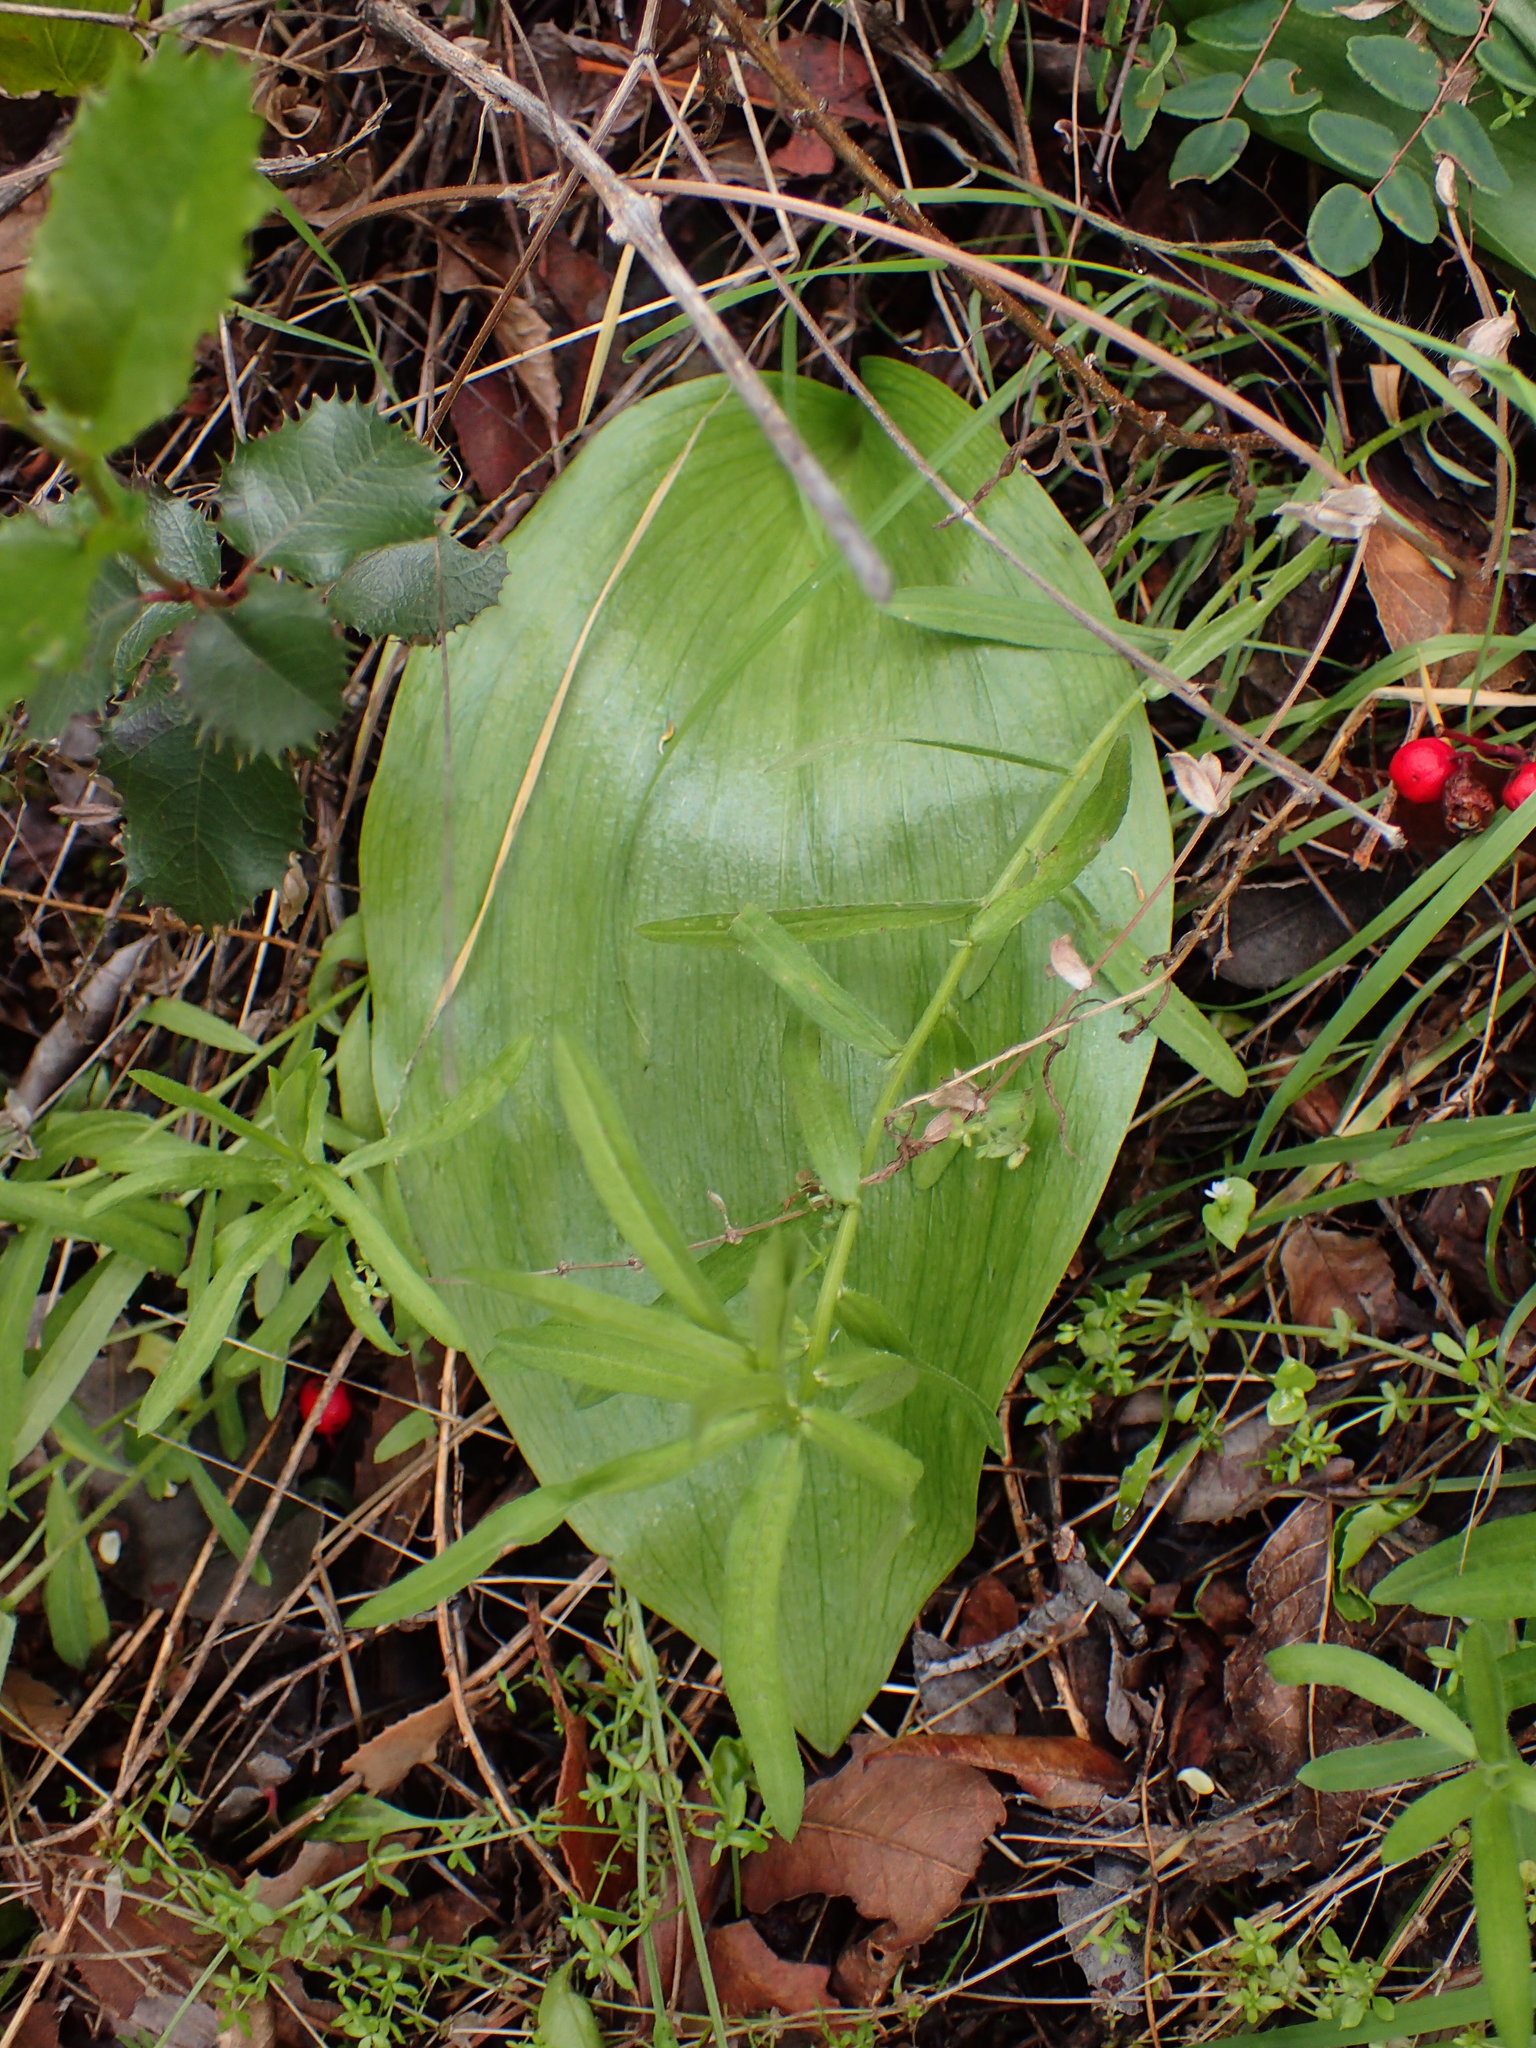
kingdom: Plantae
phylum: Tracheophyta
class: Liliopsida
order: Liliales
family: Liliaceae
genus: Fritillaria
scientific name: Fritillaria ojaiensis
